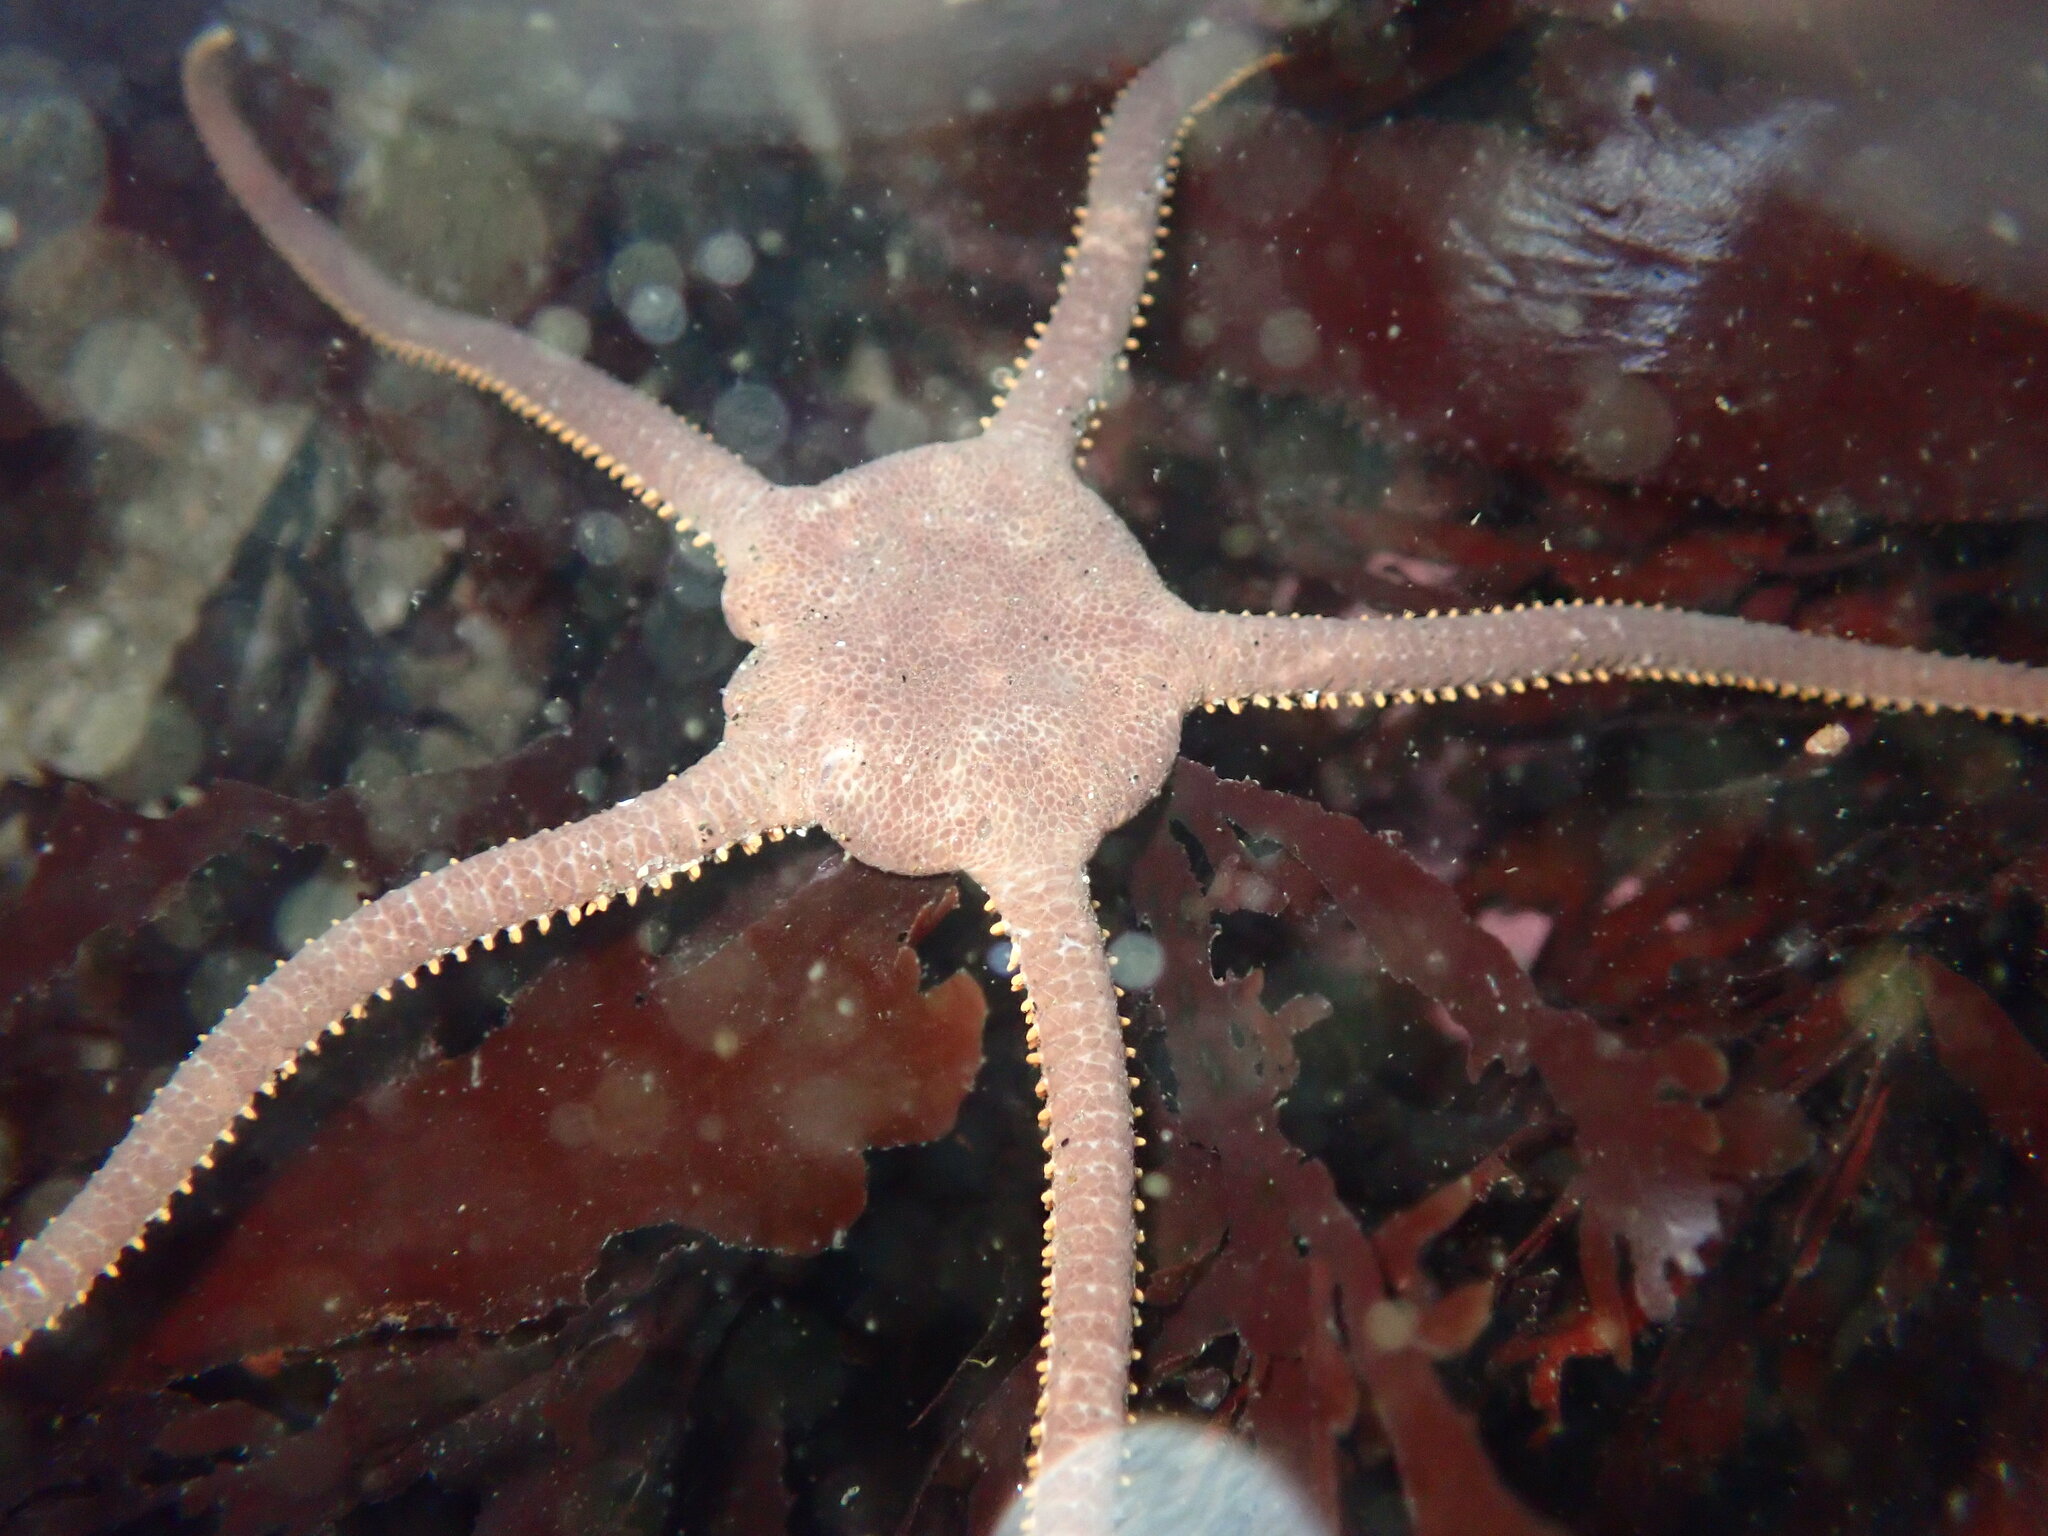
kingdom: Animalia
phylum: Echinodermata
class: Ophiuroidea
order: Amphilepidida
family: Hemieuryalidae
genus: Ophioplocus
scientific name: Ophioplocus esmarki
